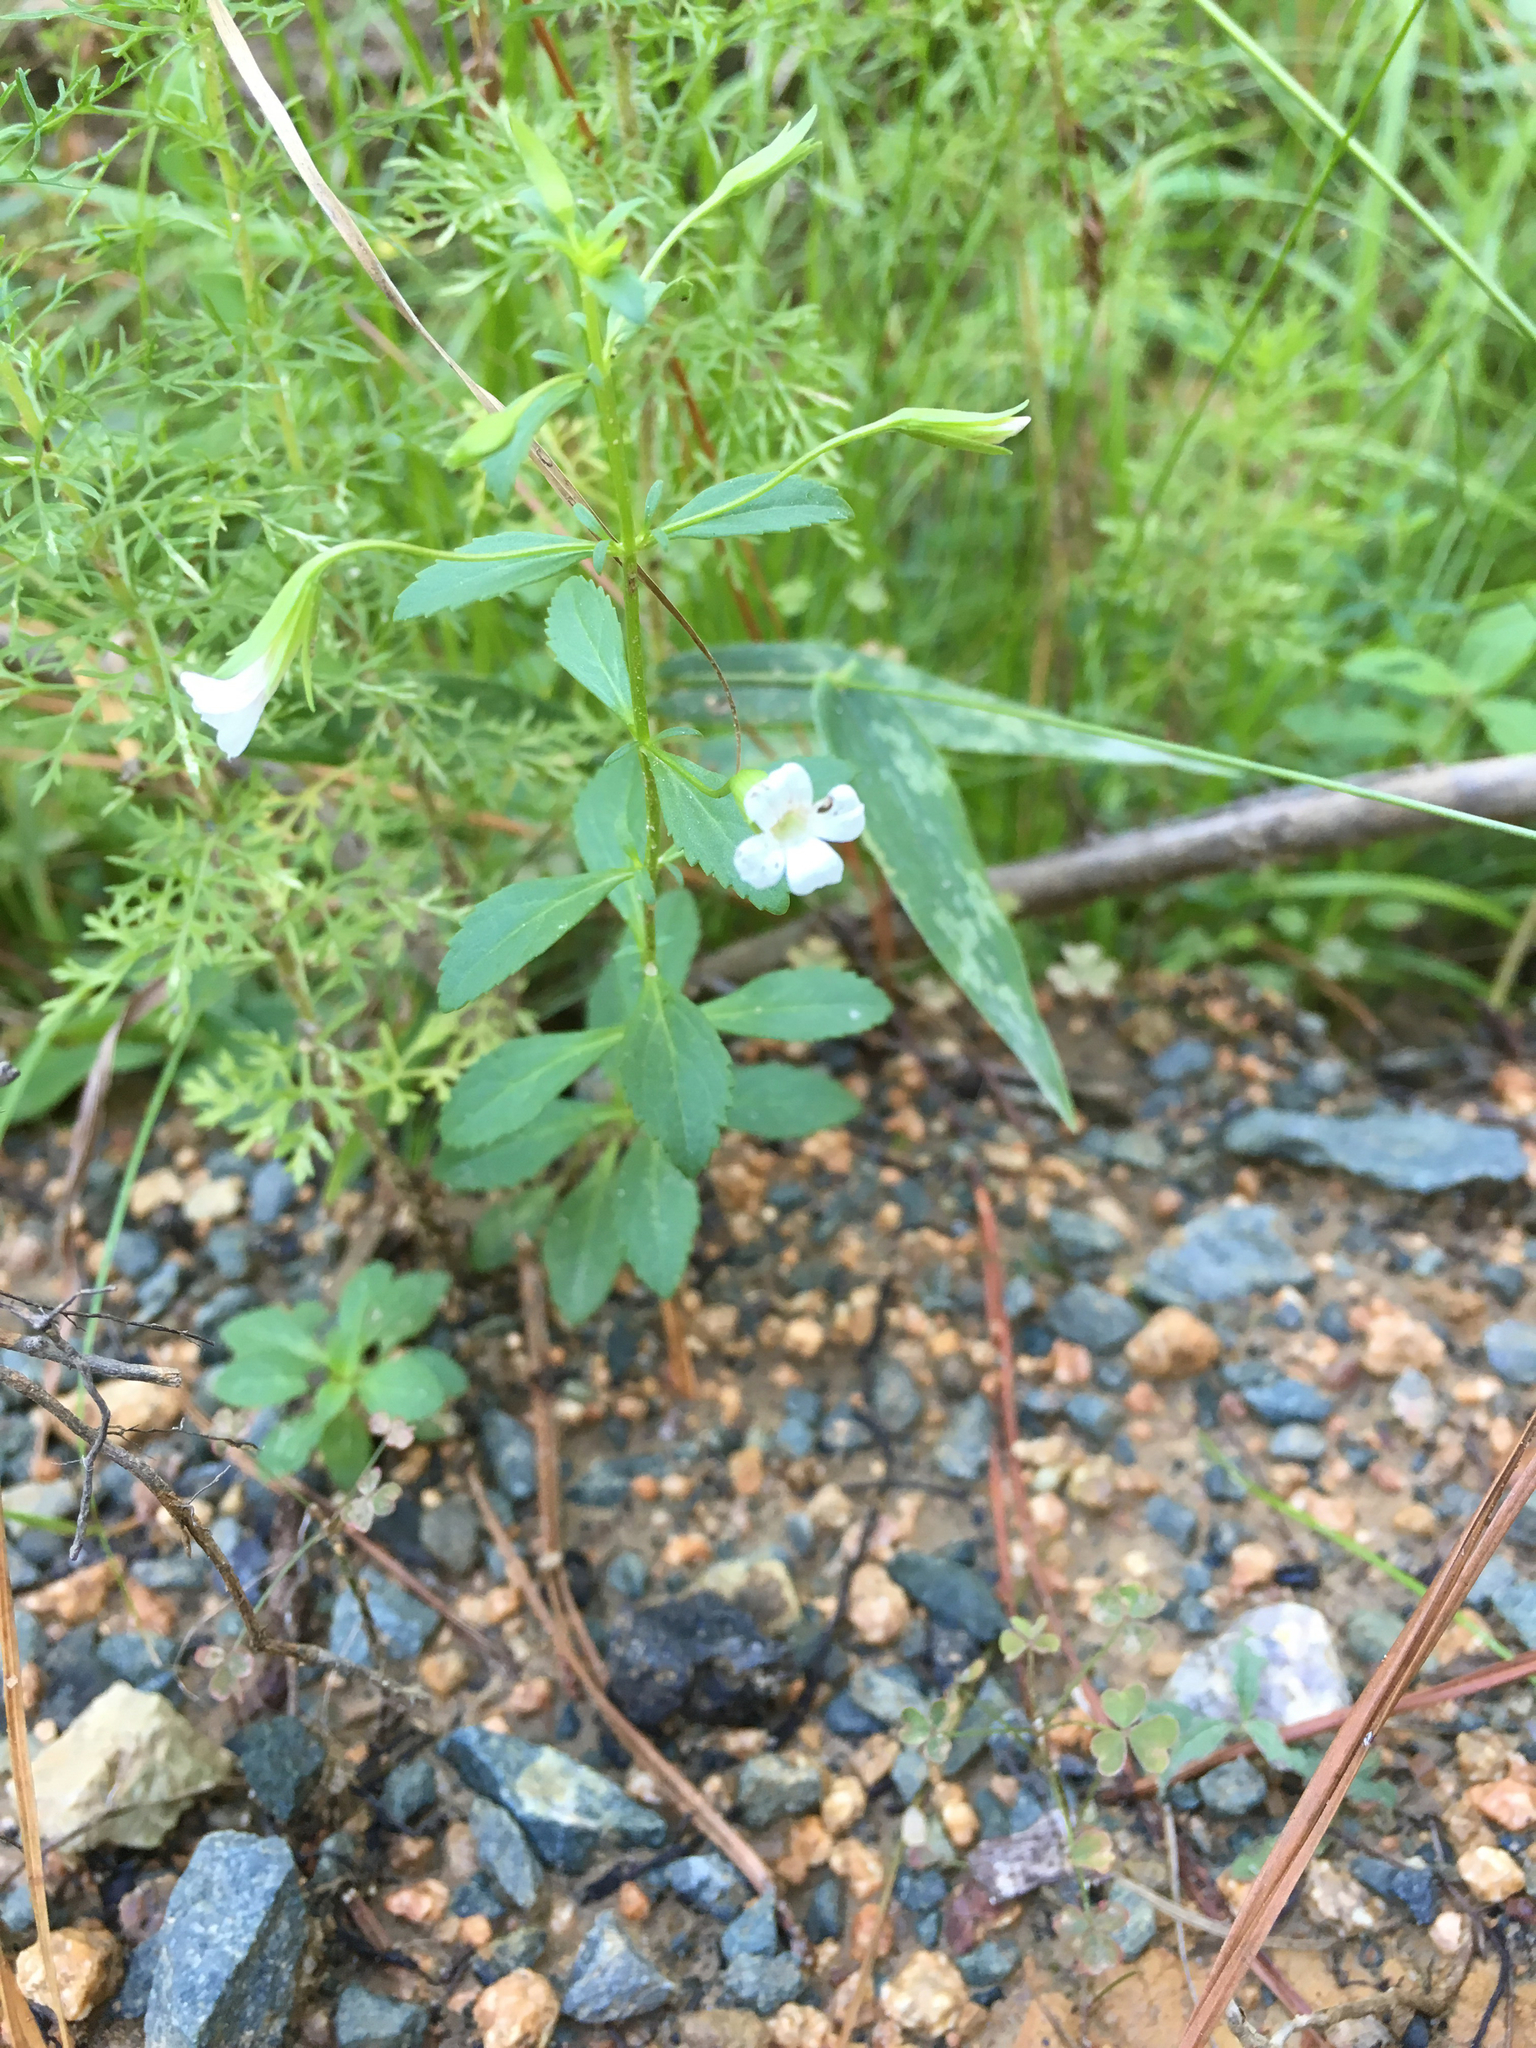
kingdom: Plantae
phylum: Tracheophyta
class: Magnoliopsida
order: Lamiales
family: Plantaginaceae
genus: Mecardonia
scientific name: Mecardonia acuminata
